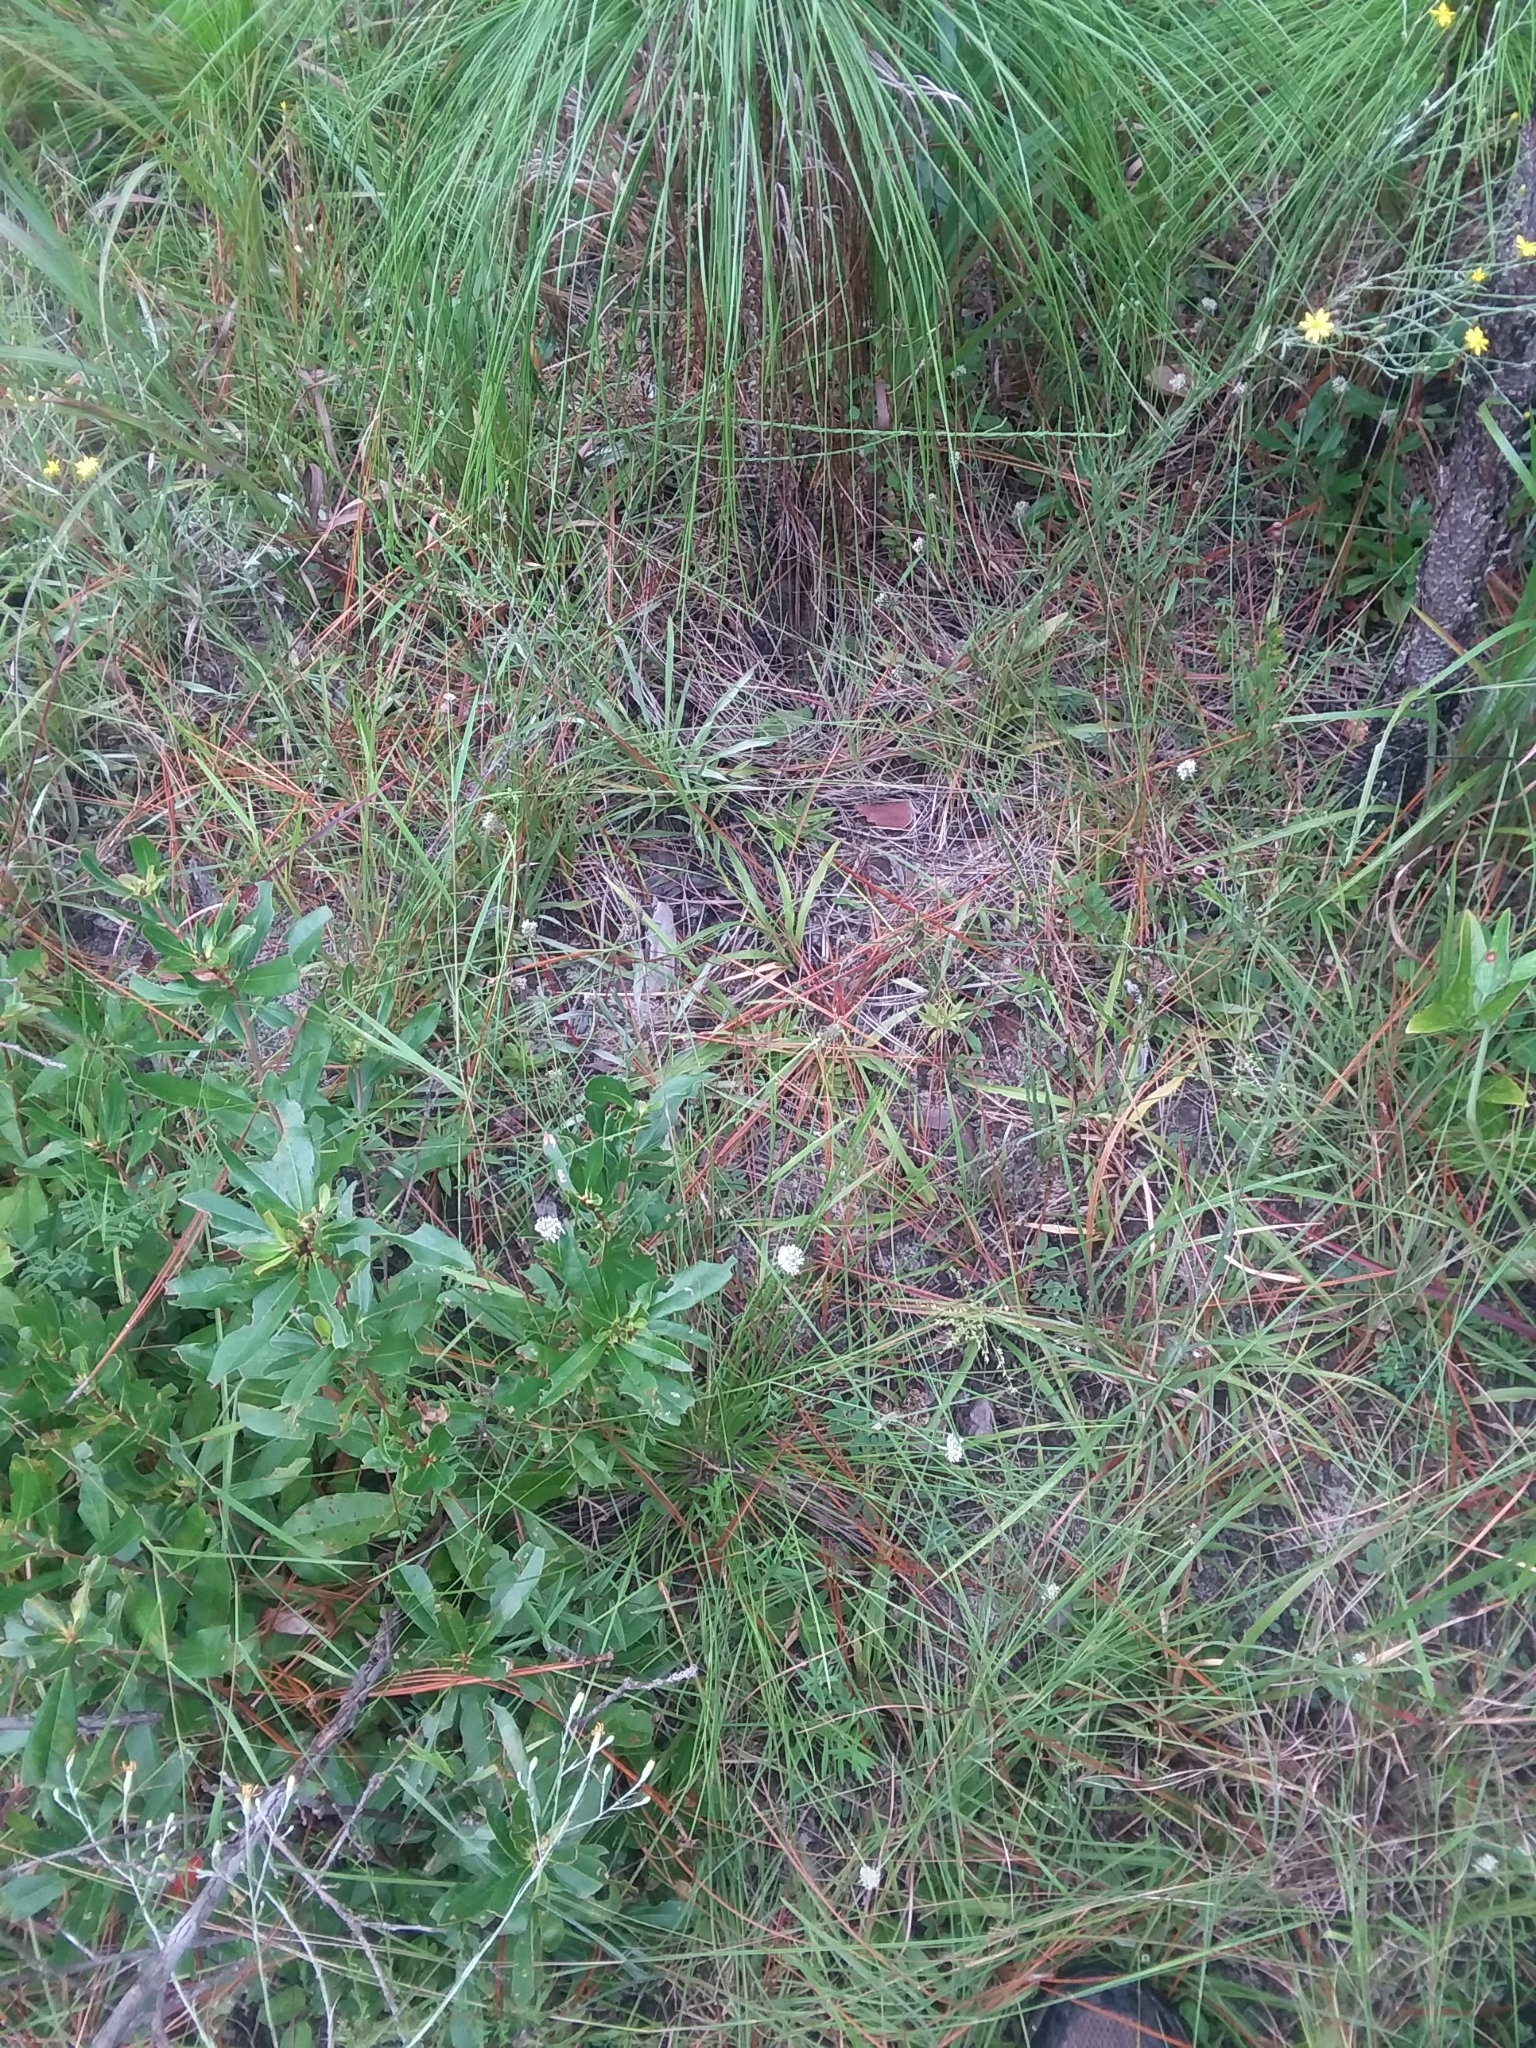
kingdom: Plantae
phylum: Tracheophyta
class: Magnoliopsida
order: Fabales
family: Fabaceae
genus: Dalea
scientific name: Dalea mountjoyae
